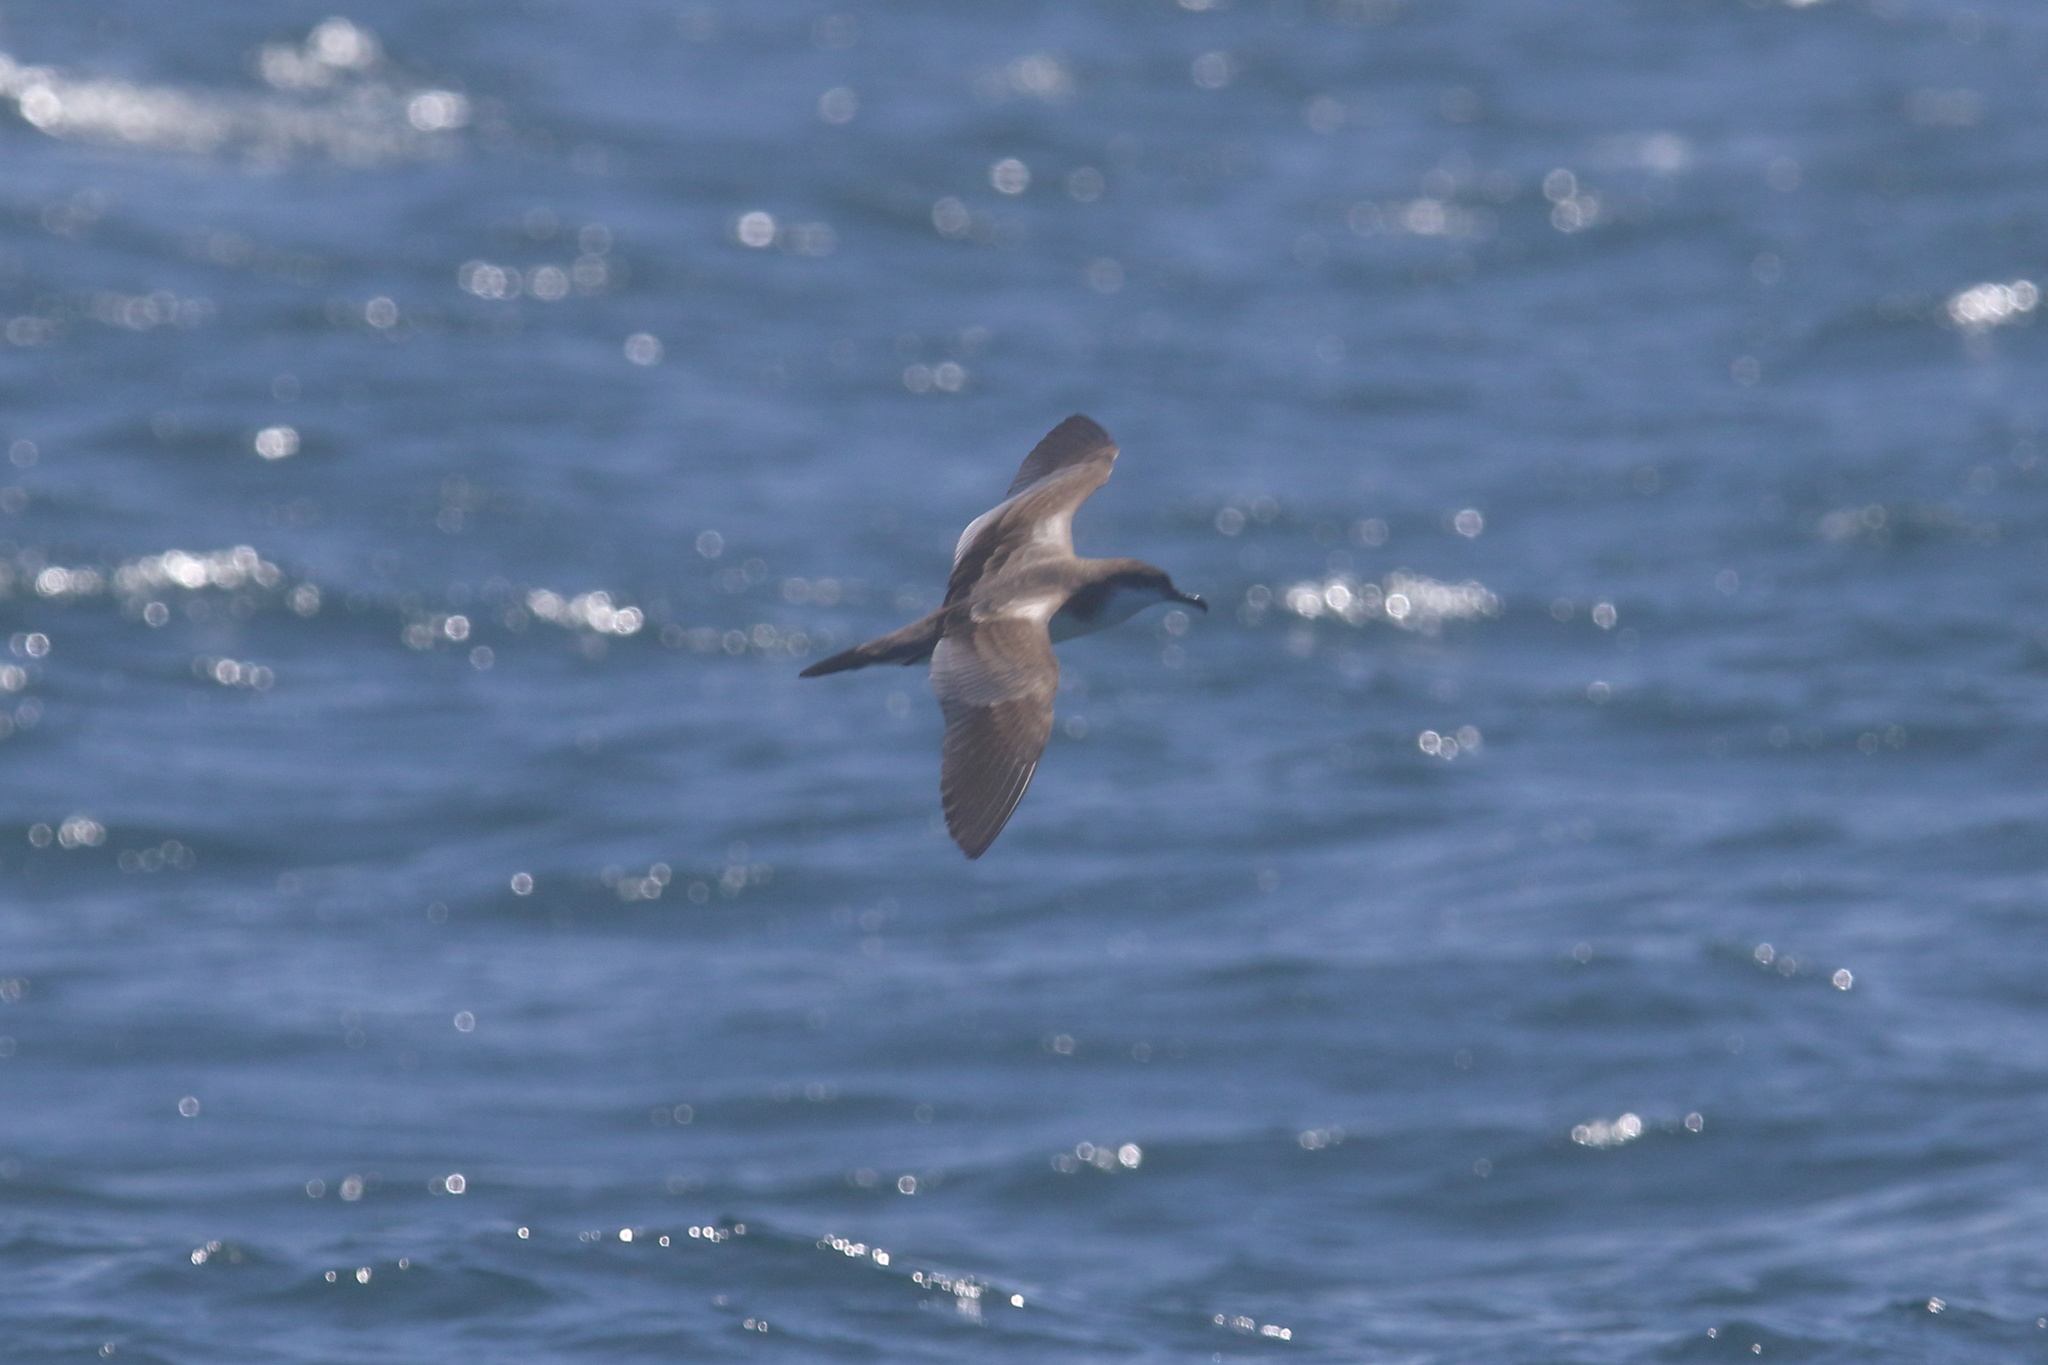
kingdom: Animalia
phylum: Chordata
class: Aves
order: Procellariiformes
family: Procellariidae
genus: Puffinus
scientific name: Puffinus bulleri
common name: Buller's shearwater
